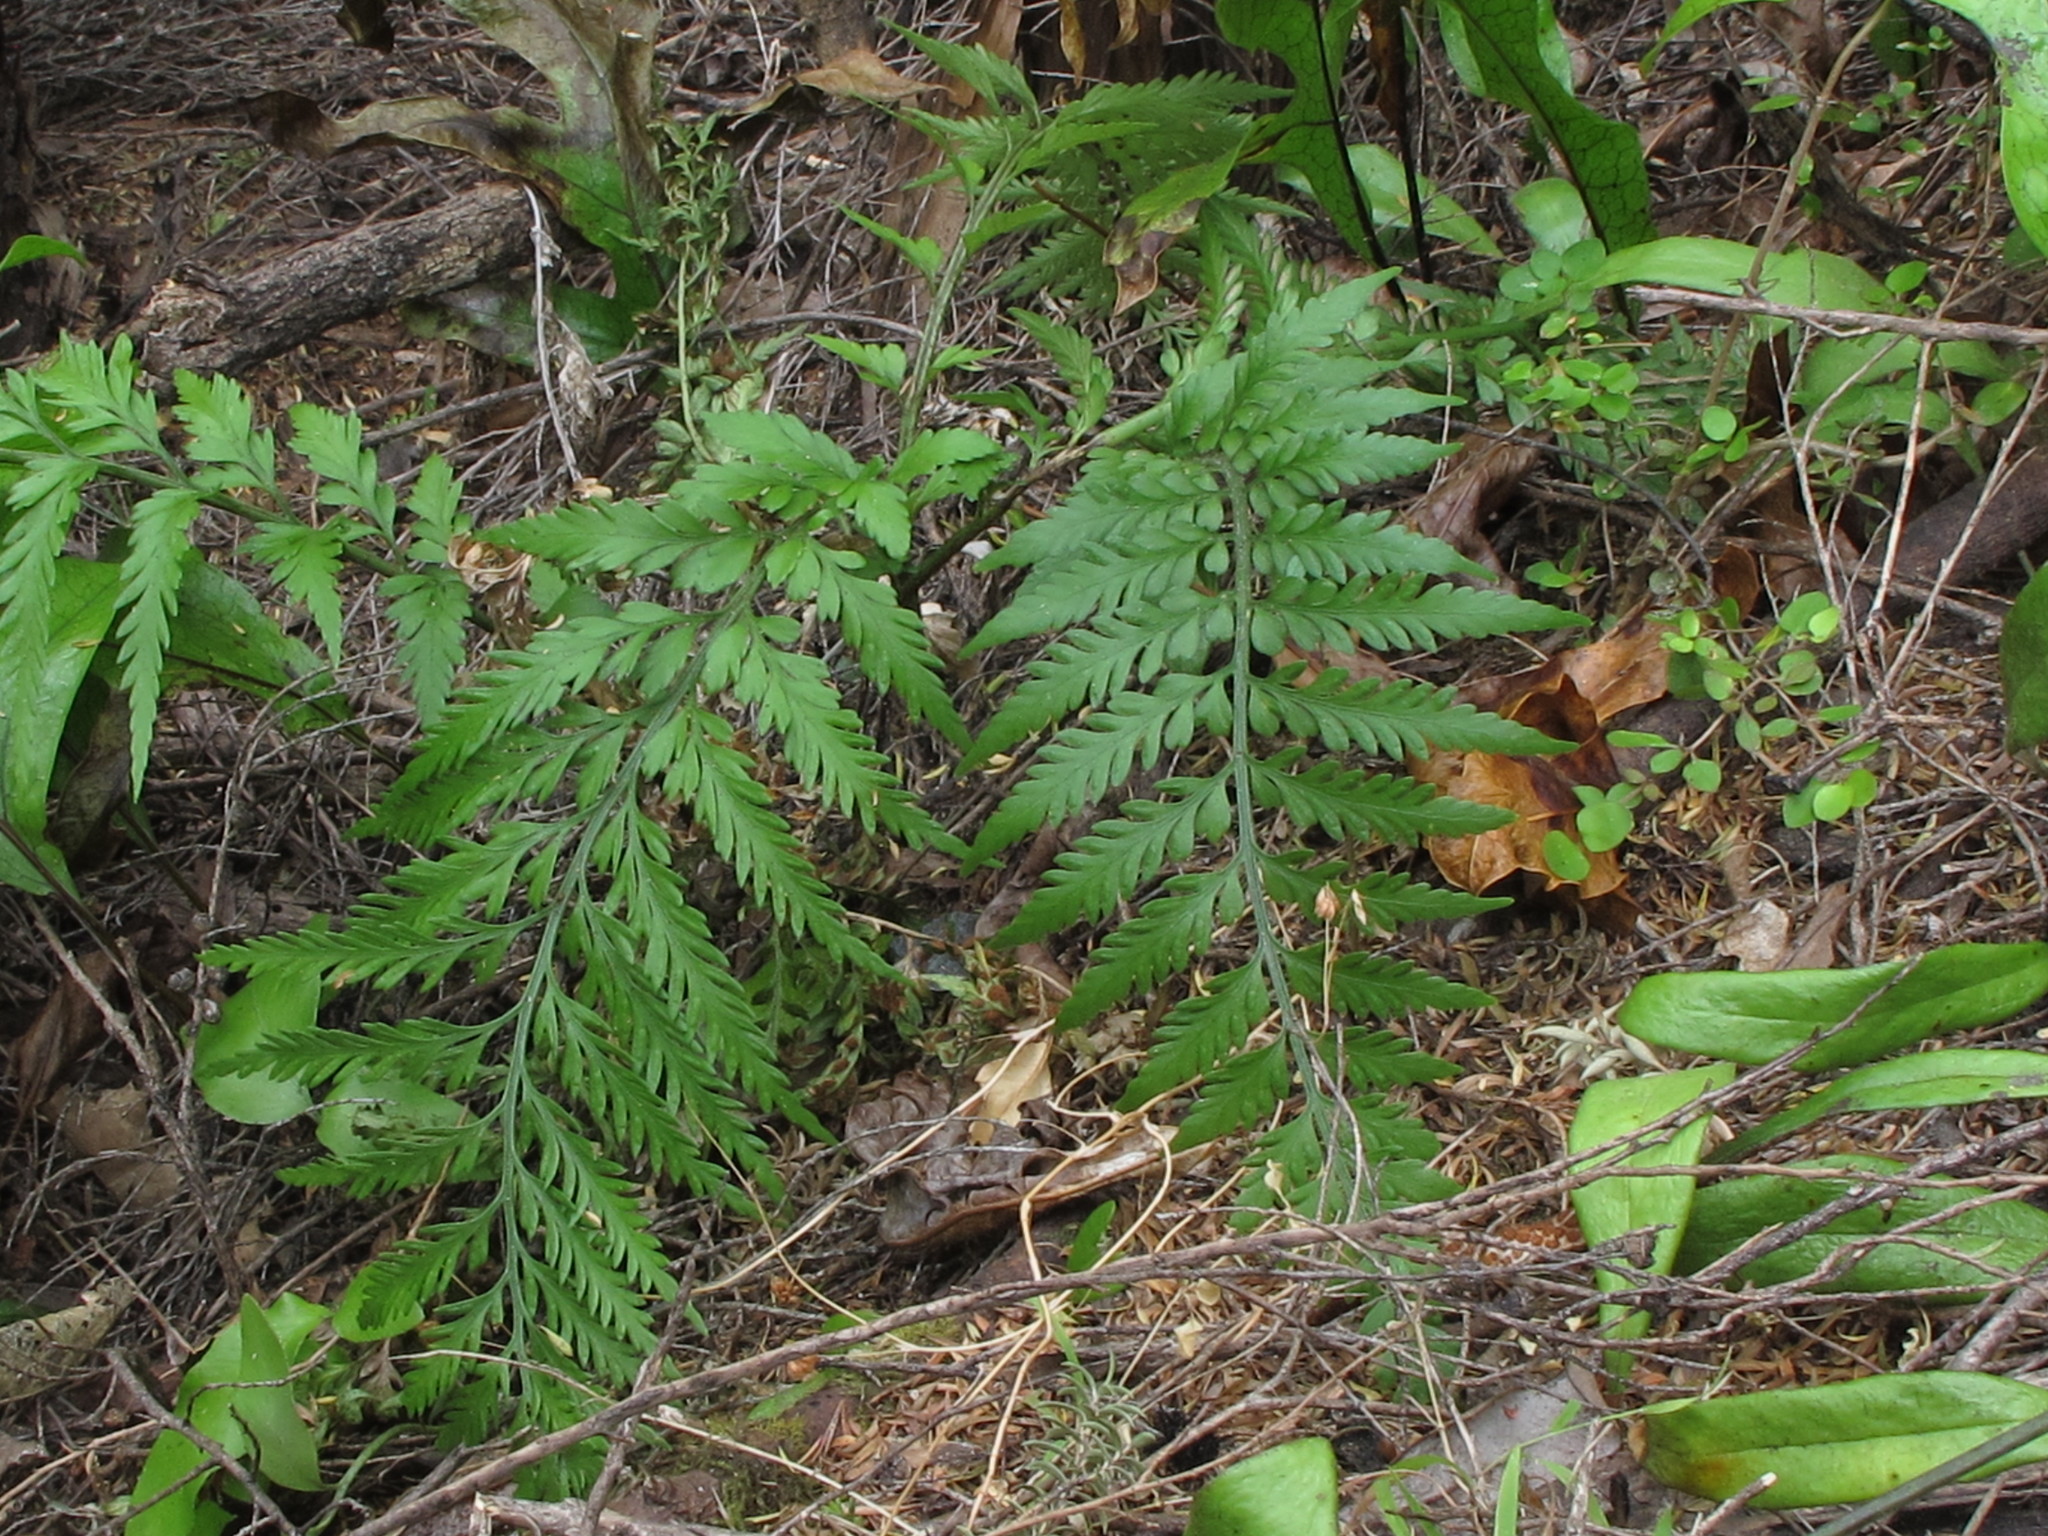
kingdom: Plantae
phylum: Tracheophyta
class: Polypodiopsida
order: Polypodiales
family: Aspleniaceae
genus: Asplenium
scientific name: Asplenium appendiculatum
